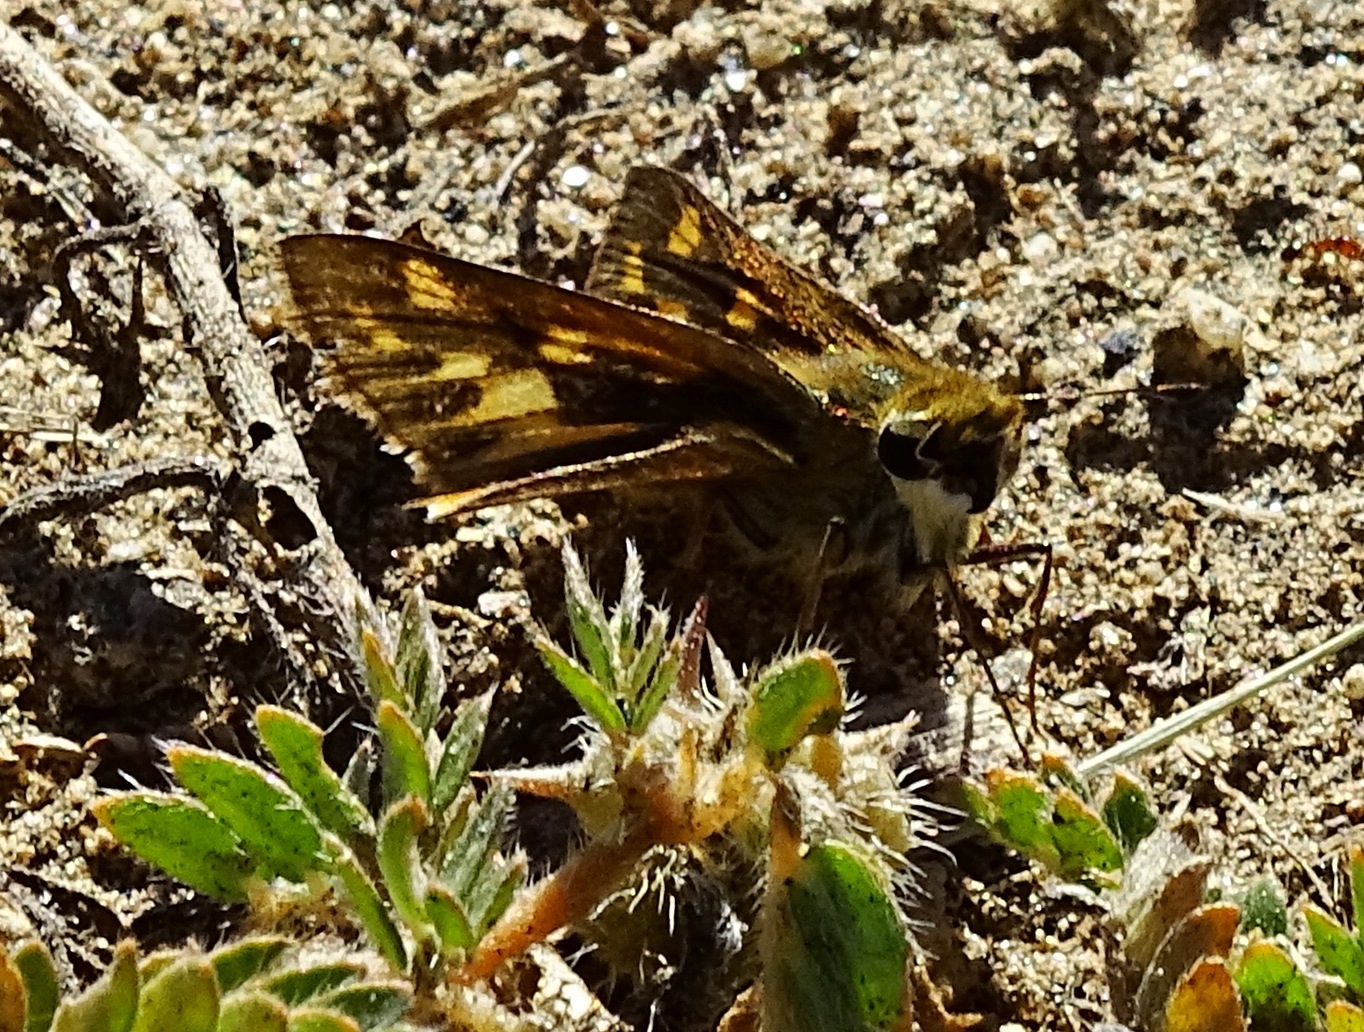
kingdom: Animalia
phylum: Arthropoda
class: Insecta
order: Lepidoptera
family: Hesperiidae
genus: Hylephila
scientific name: Hylephila phyleus
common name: Fiery skipper
